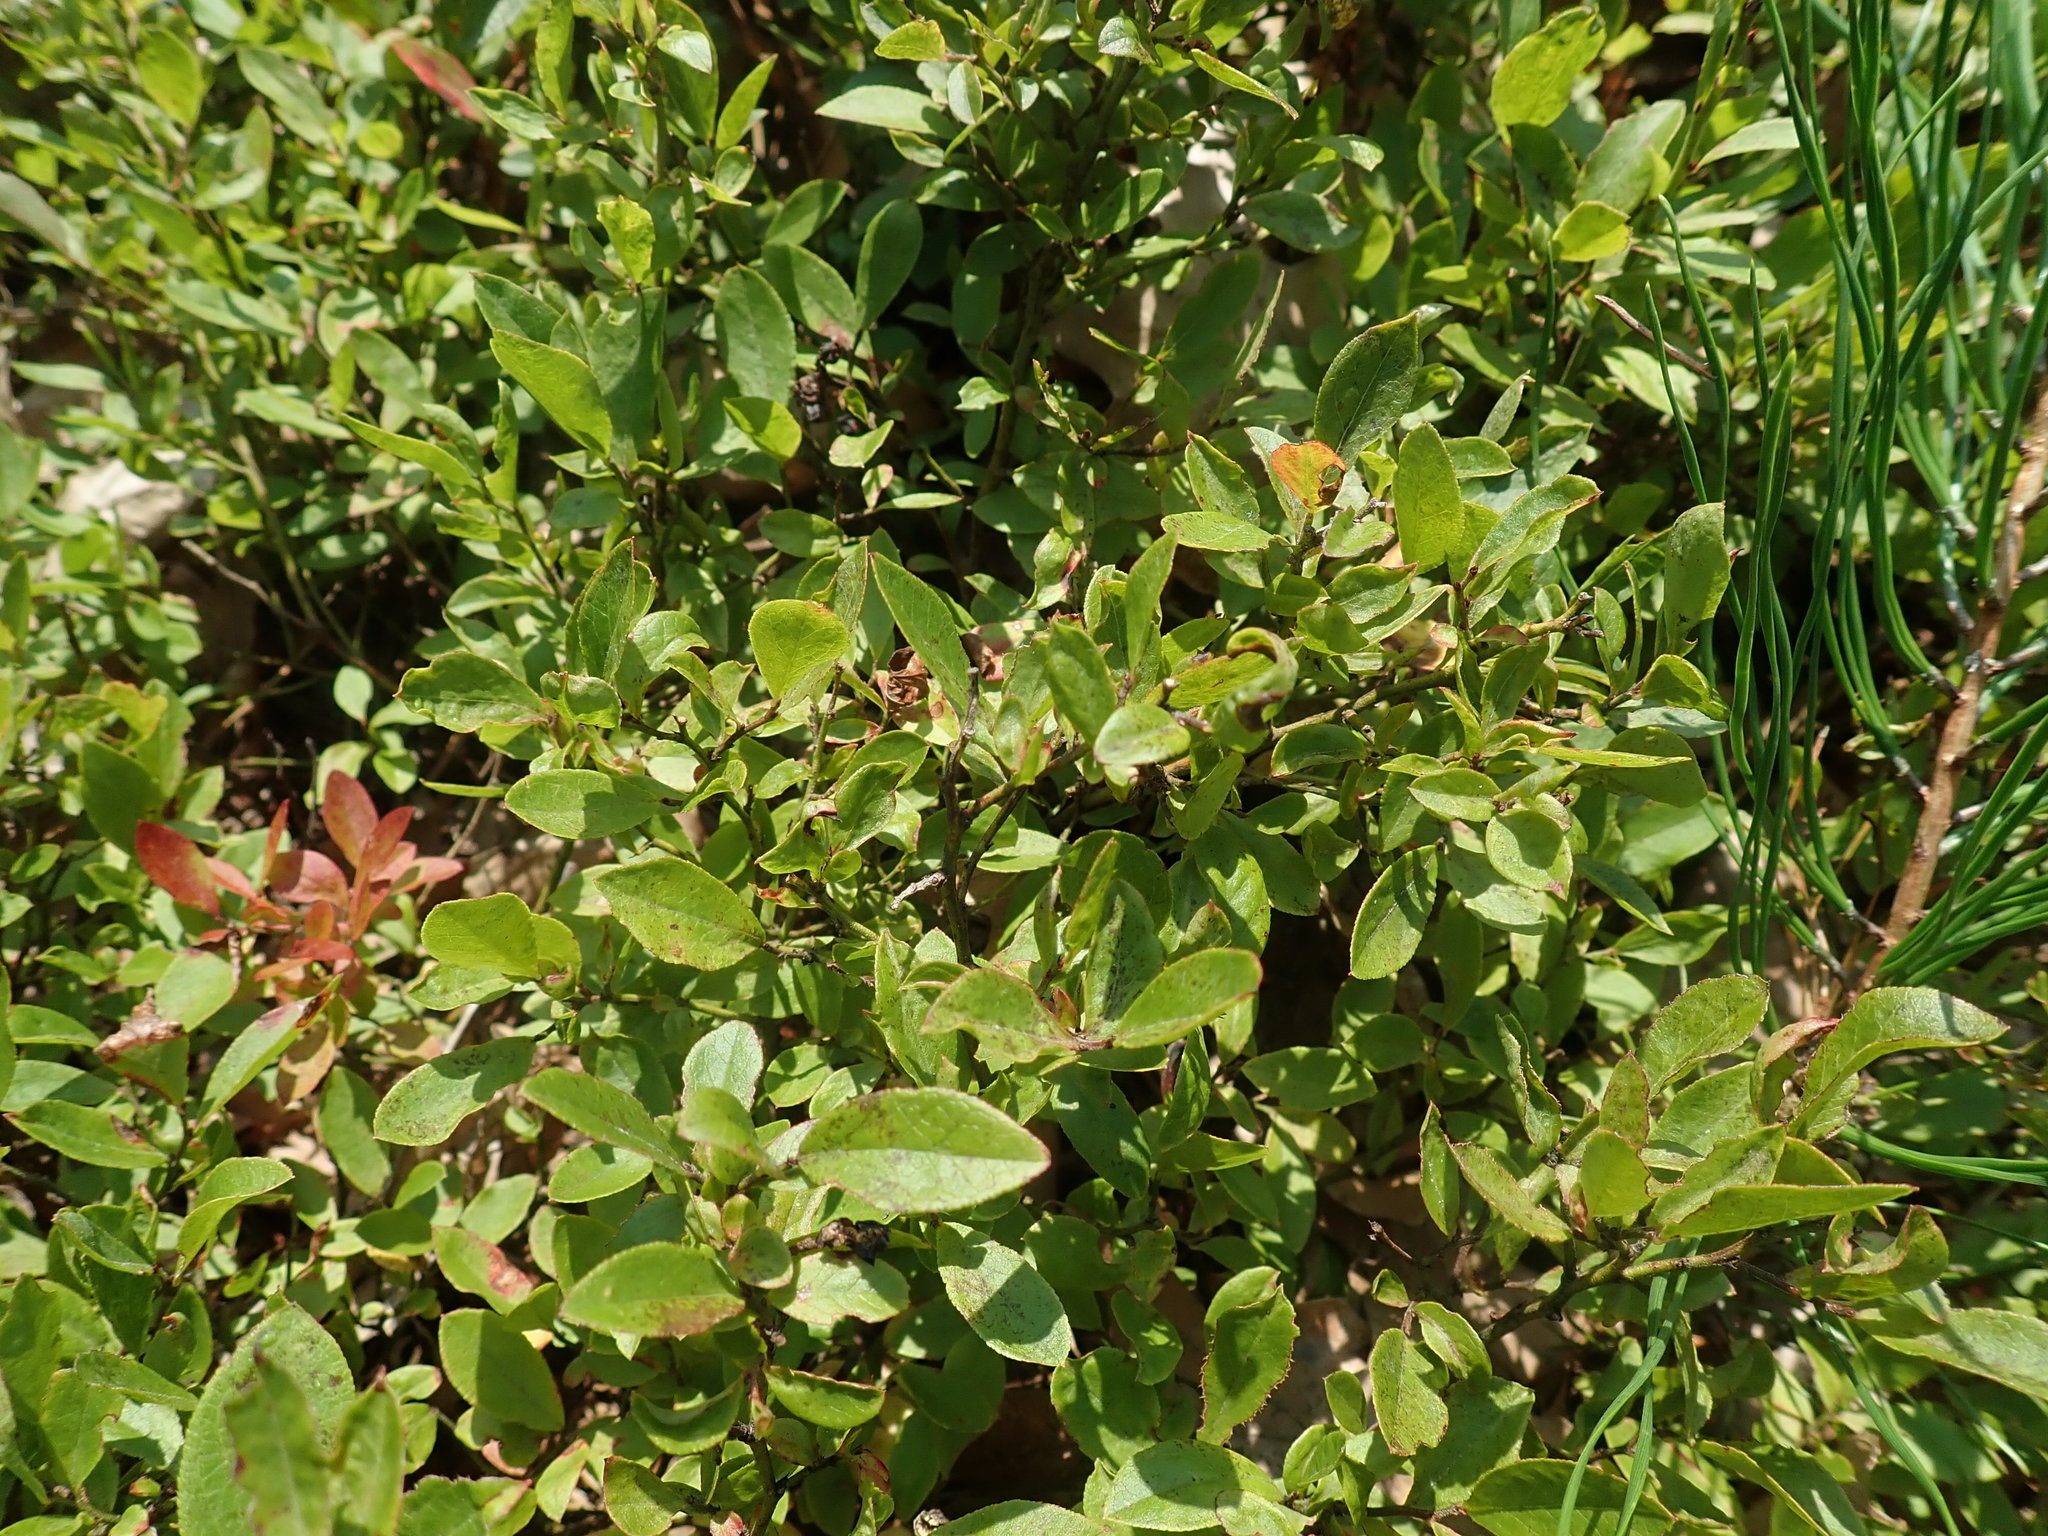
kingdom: Plantae
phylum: Tracheophyta
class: Magnoliopsida
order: Ericales
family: Ericaceae
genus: Vaccinium
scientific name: Vaccinium angustifolium
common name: Early lowbush blueberry
